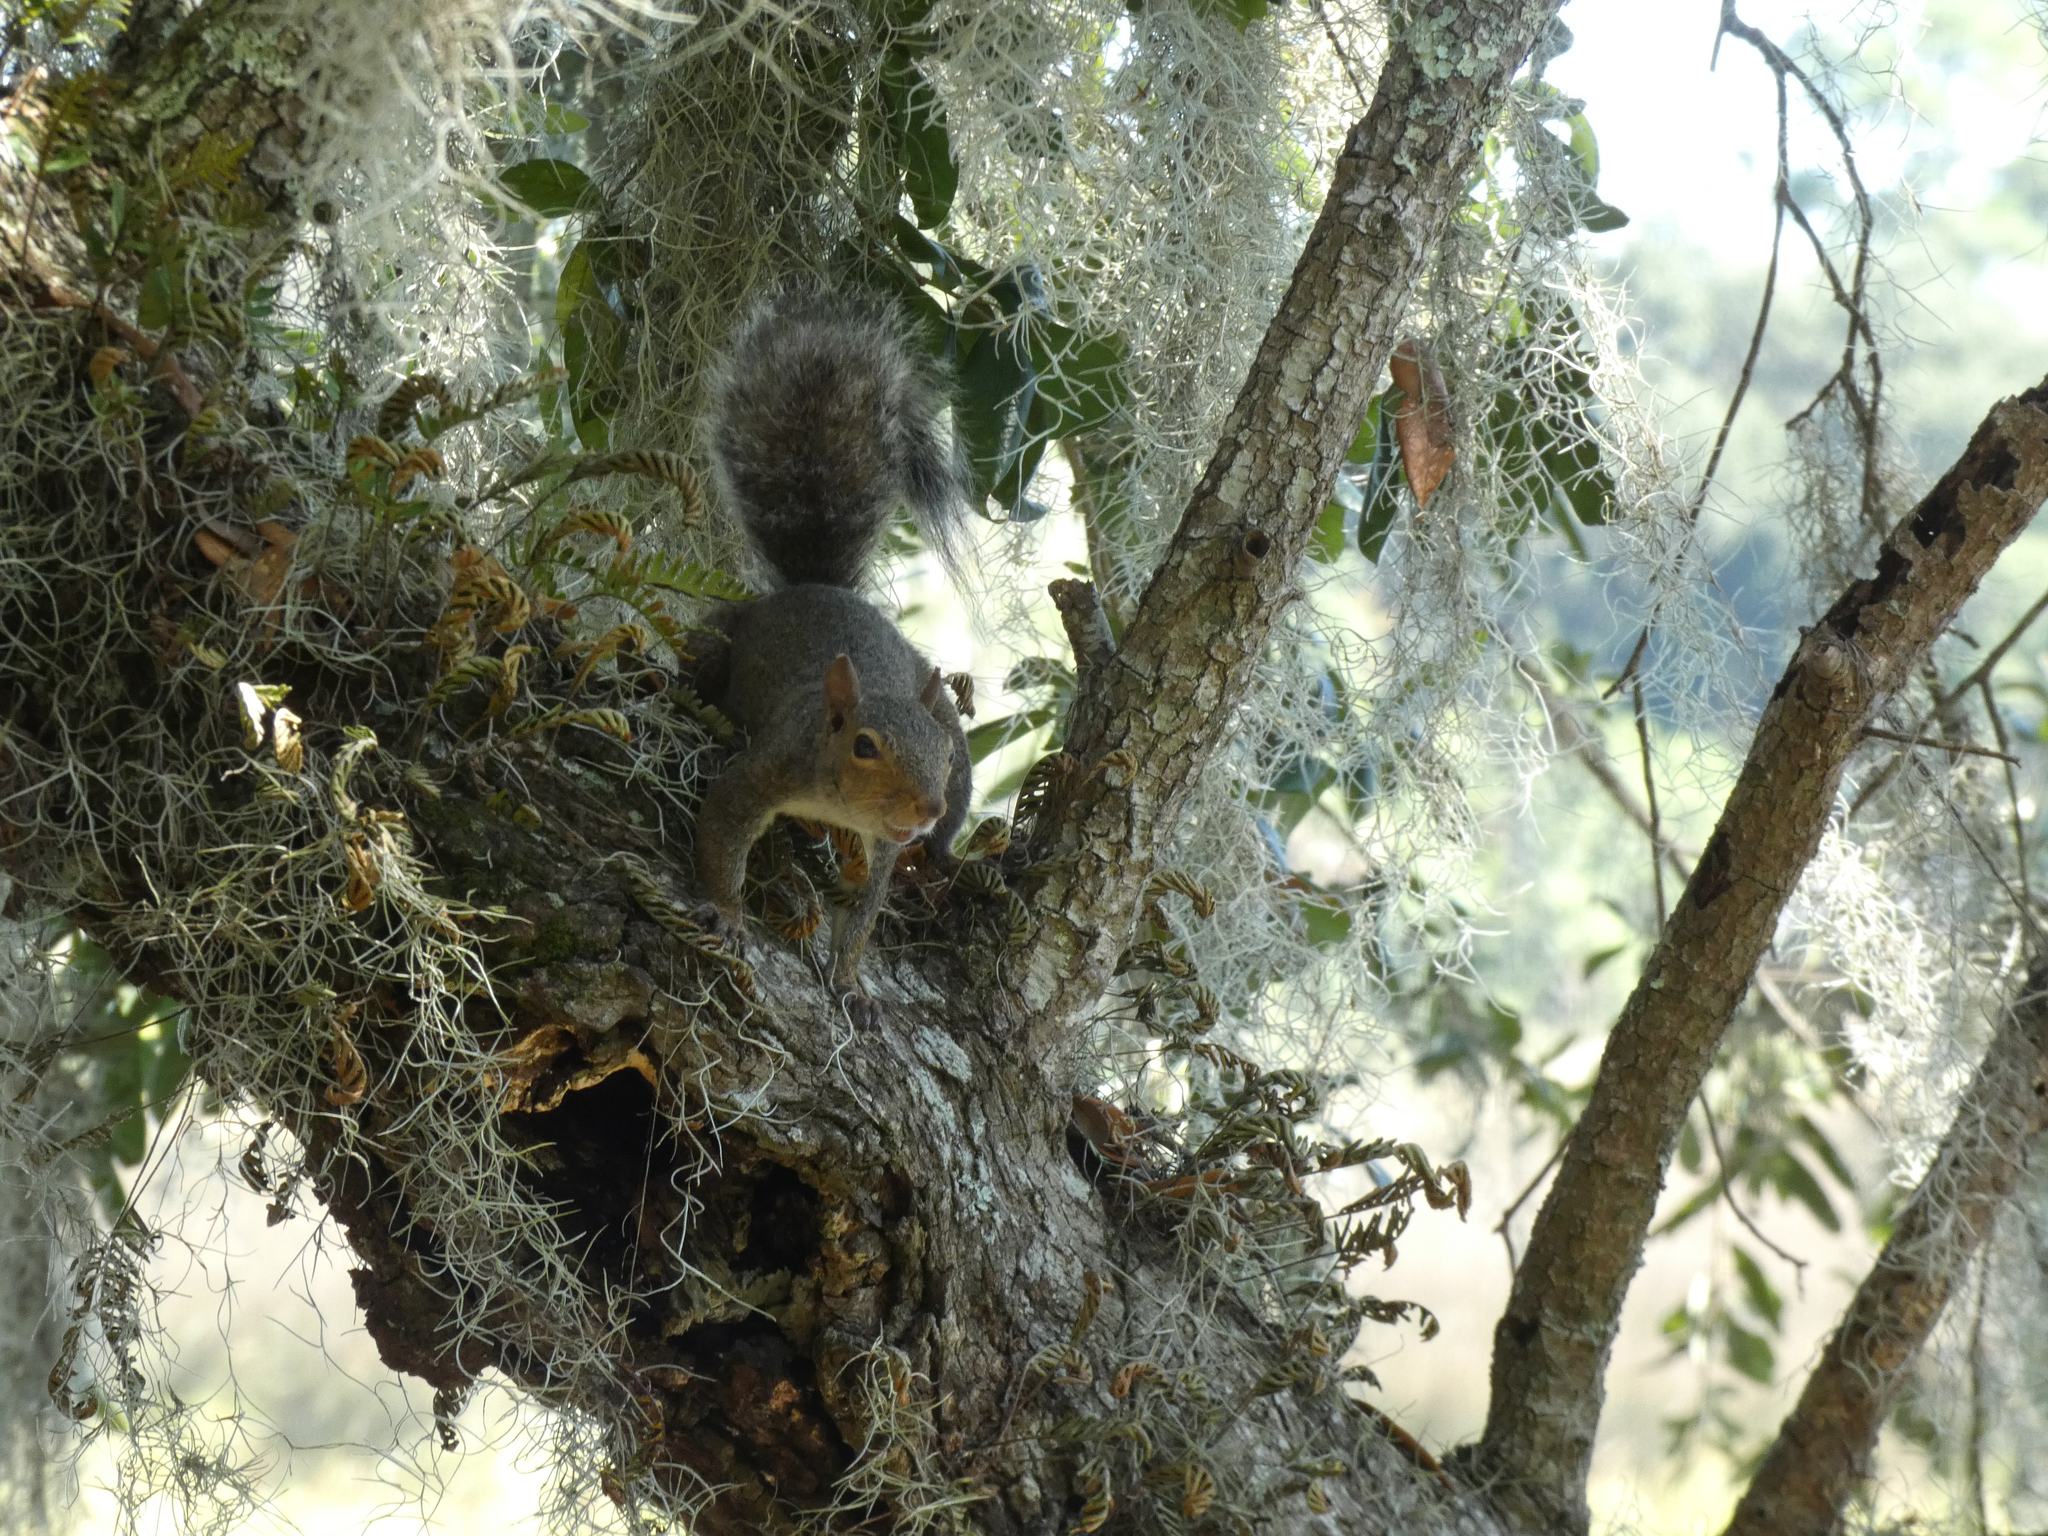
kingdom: Animalia
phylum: Chordata
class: Mammalia
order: Rodentia
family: Sciuridae
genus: Sciurus
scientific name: Sciurus carolinensis
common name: Eastern gray squirrel
